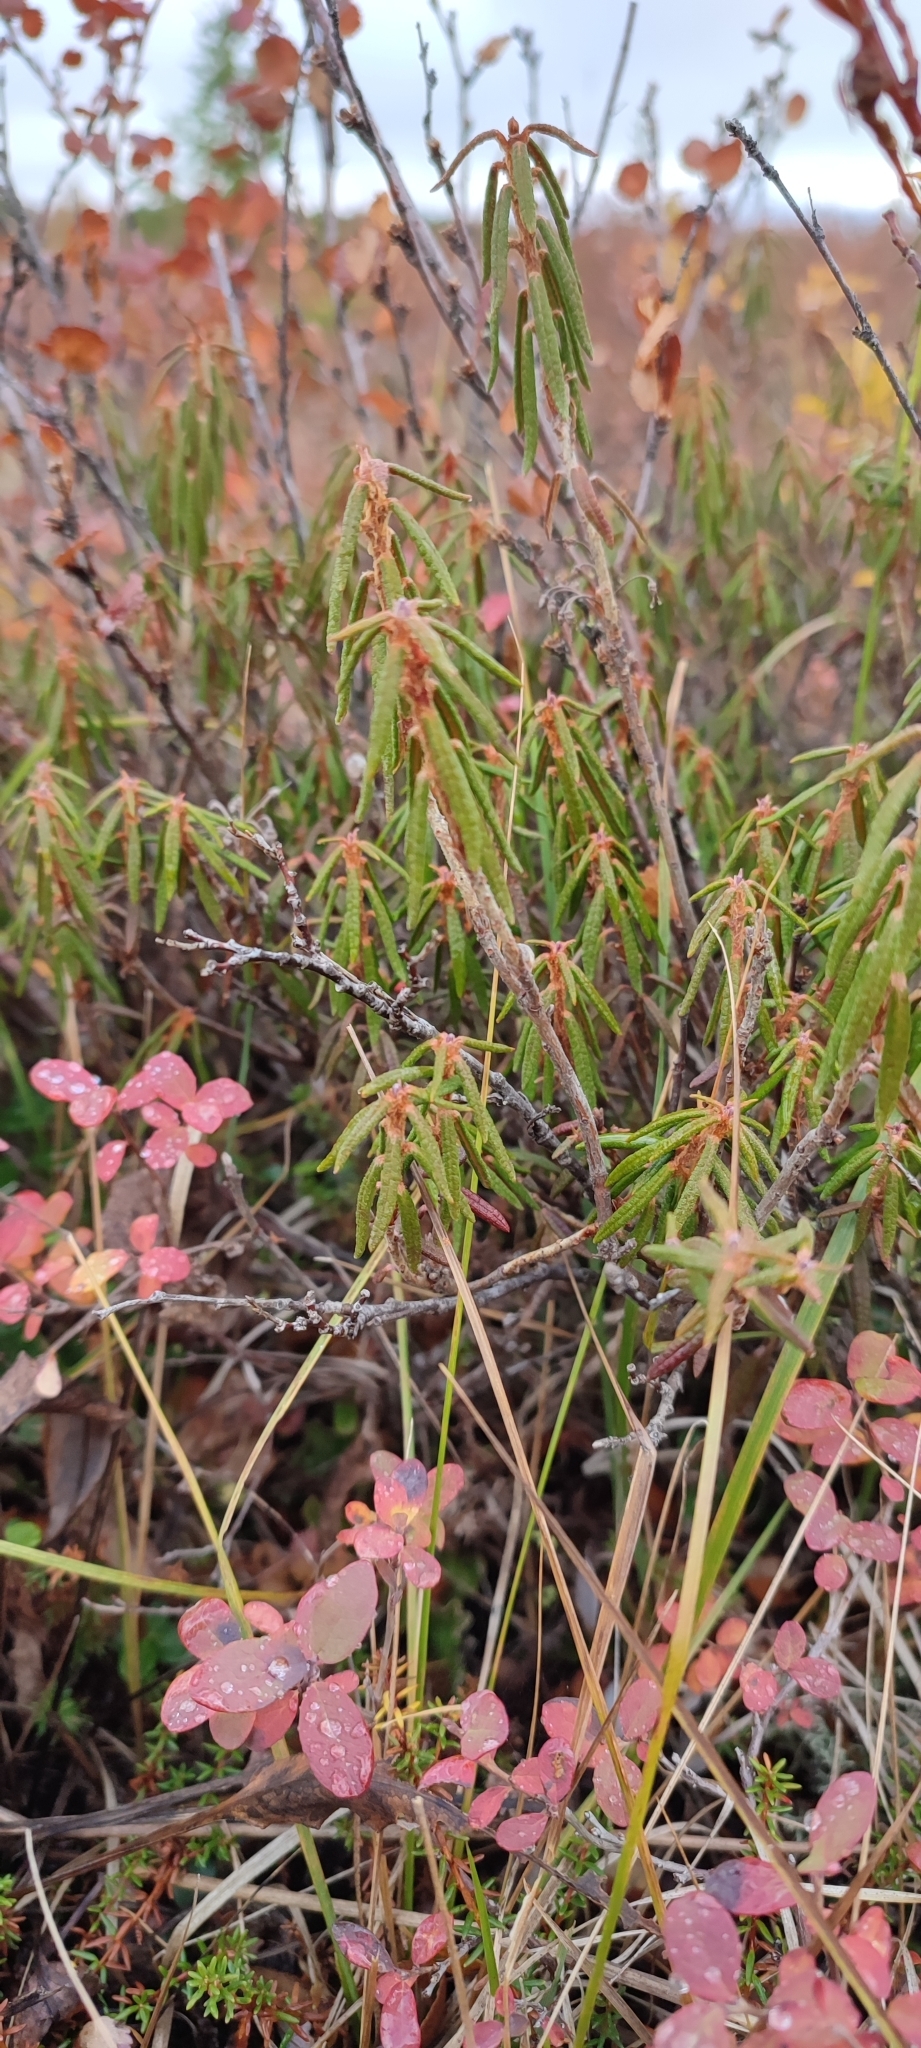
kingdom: Plantae
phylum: Tracheophyta
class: Magnoliopsida
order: Ericales
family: Ericaceae
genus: Rhododendron
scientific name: Rhododendron tomentosum
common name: Marsh labrador tea
